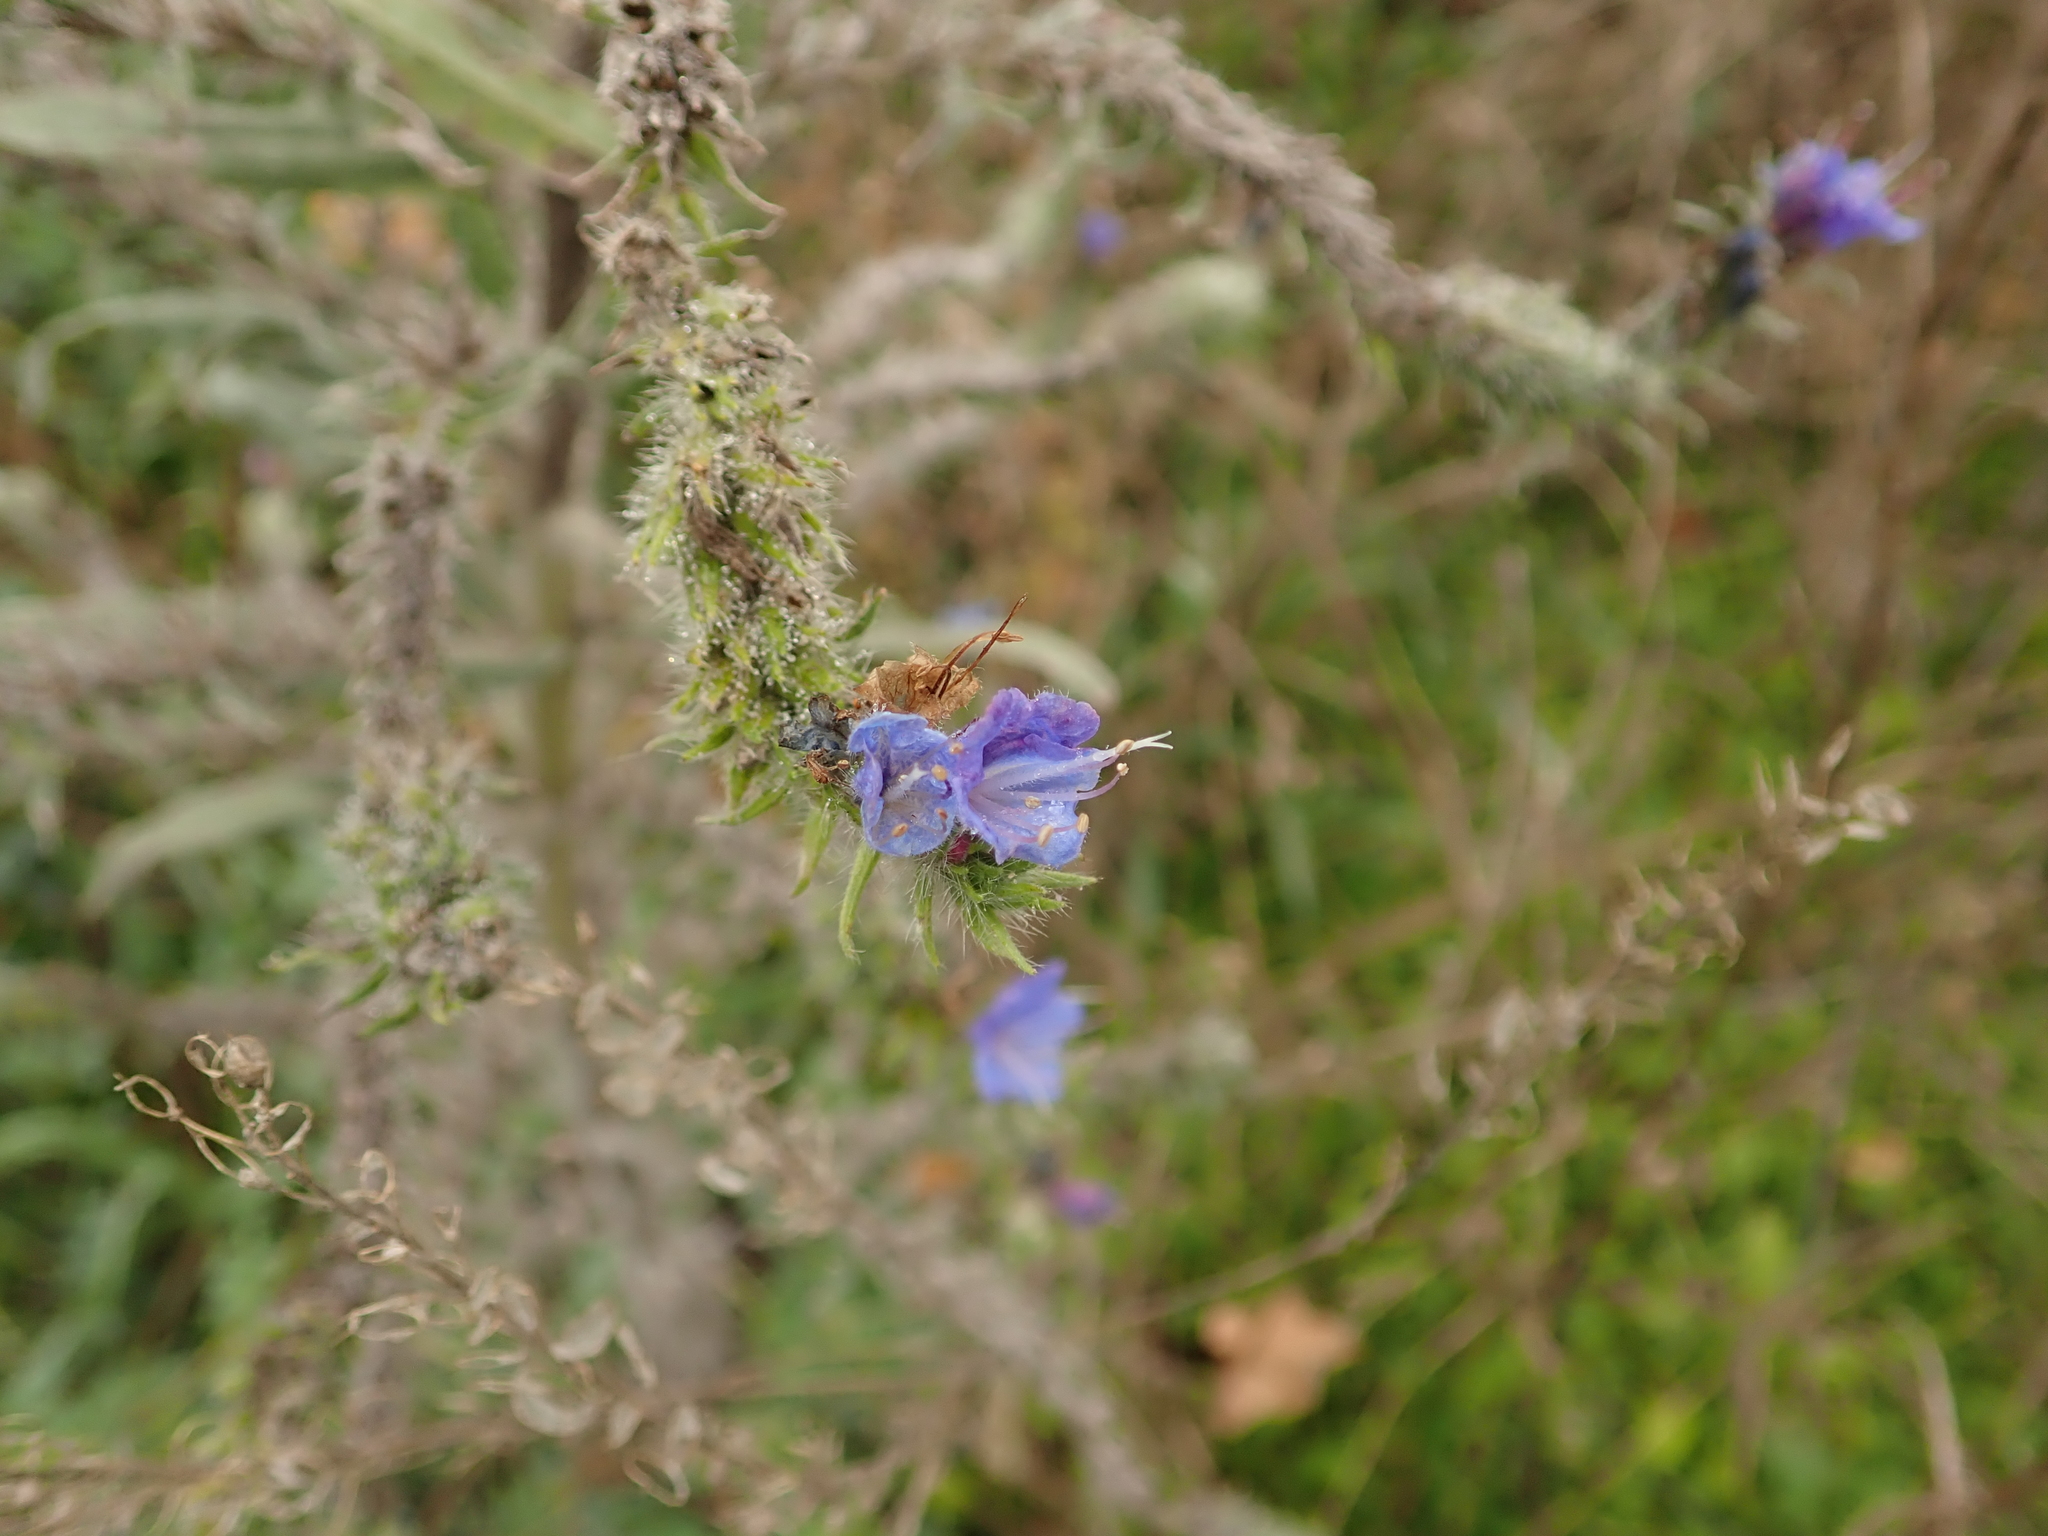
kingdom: Plantae
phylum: Tracheophyta
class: Magnoliopsida
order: Boraginales
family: Boraginaceae
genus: Echium
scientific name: Echium vulgare
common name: Common viper's bugloss
